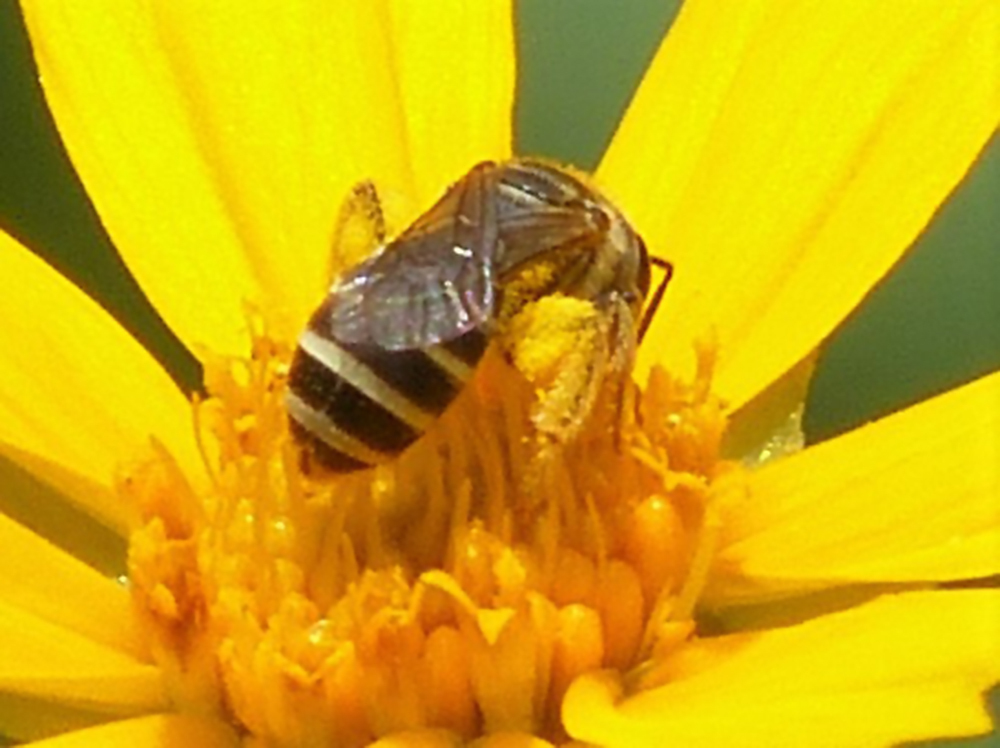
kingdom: Animalia
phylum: Arthropoda
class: Insecta
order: Hymenoptera
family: Halictidae
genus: Halictus
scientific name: Halictus ligatus
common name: Ligated furrow bee
